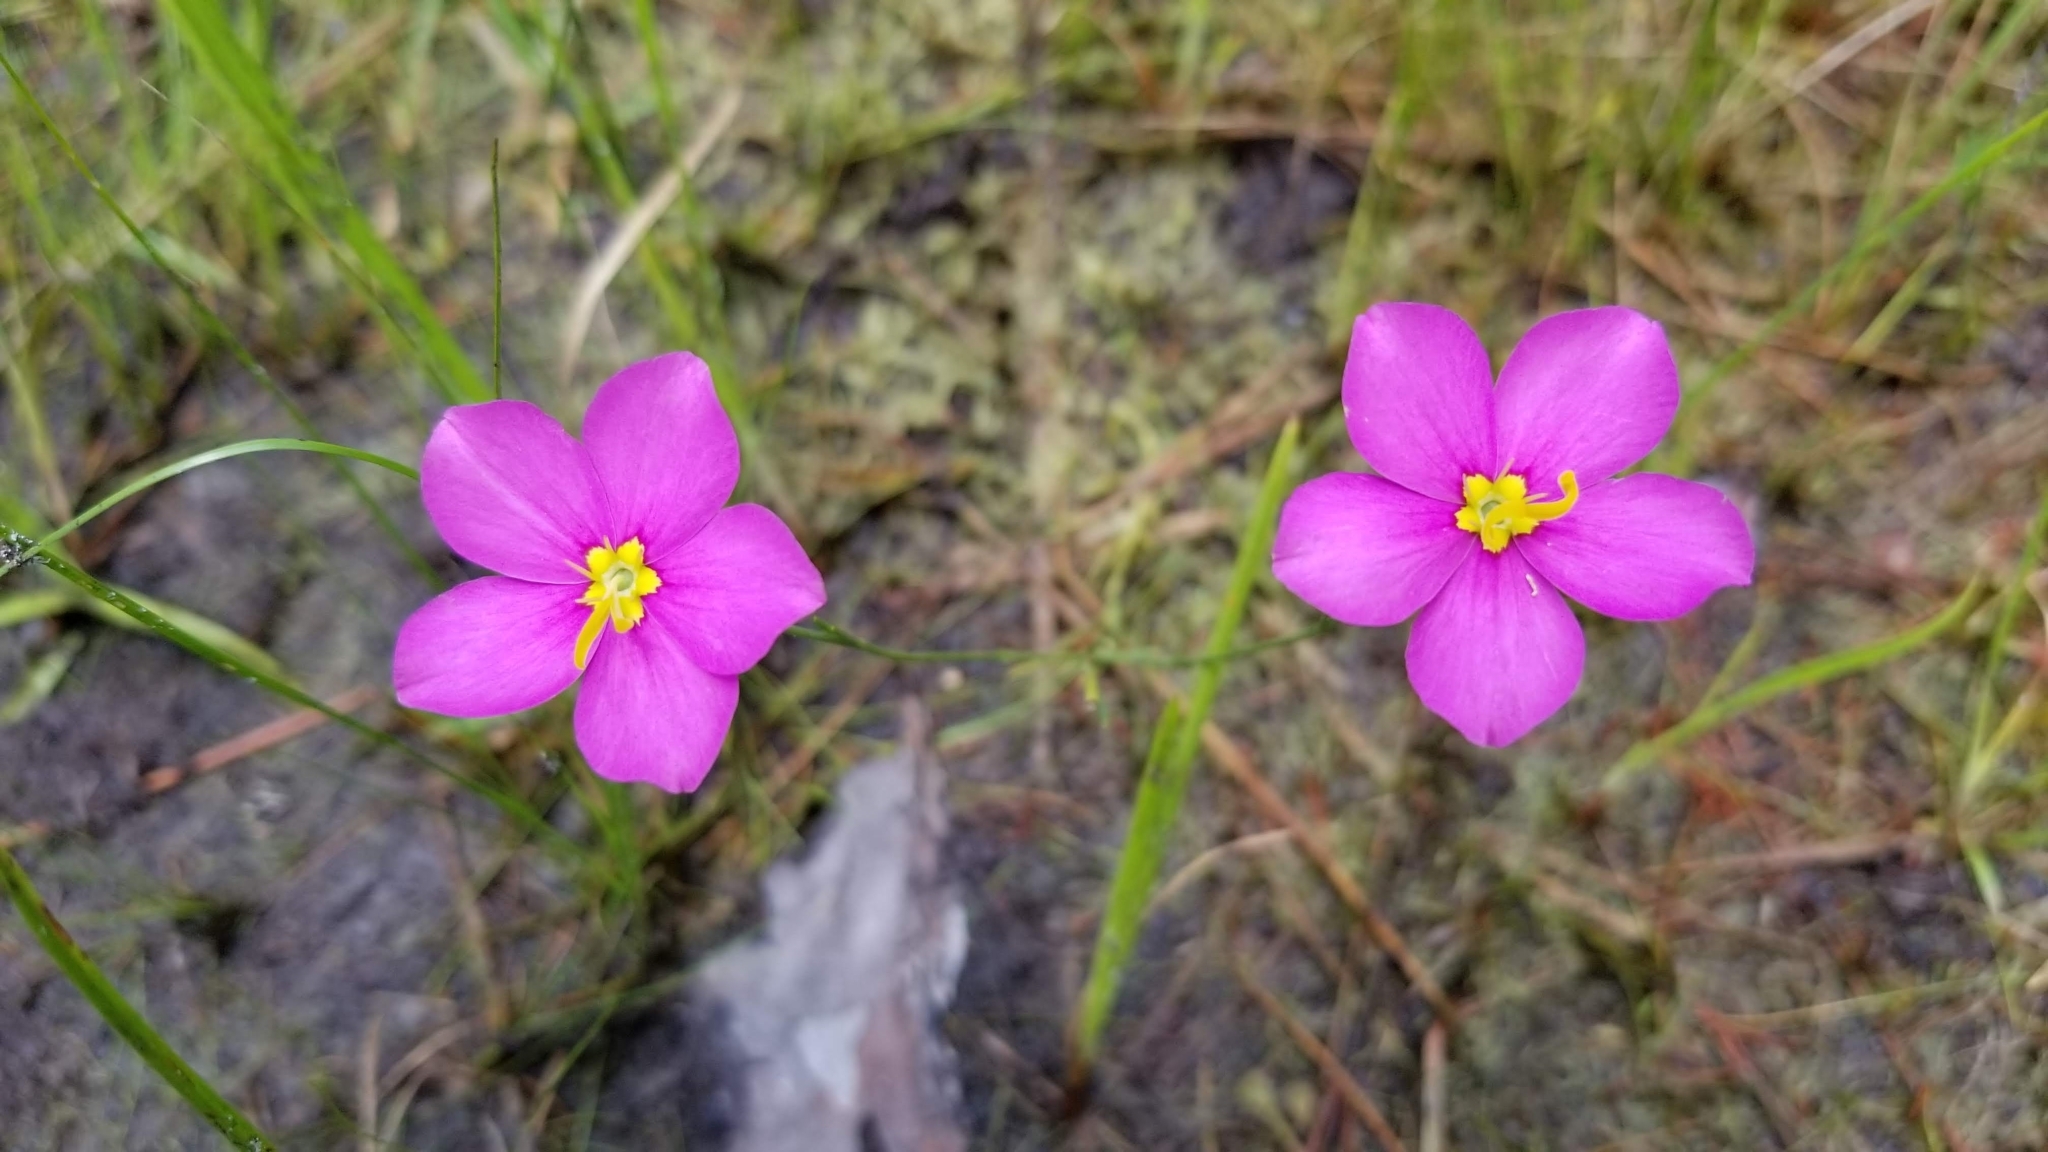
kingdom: Plantae
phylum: Tracheophyta
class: Magnoliopsida
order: Gentianales
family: Gentianaceae
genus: Sabatia
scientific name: Sabatia grandiflora
